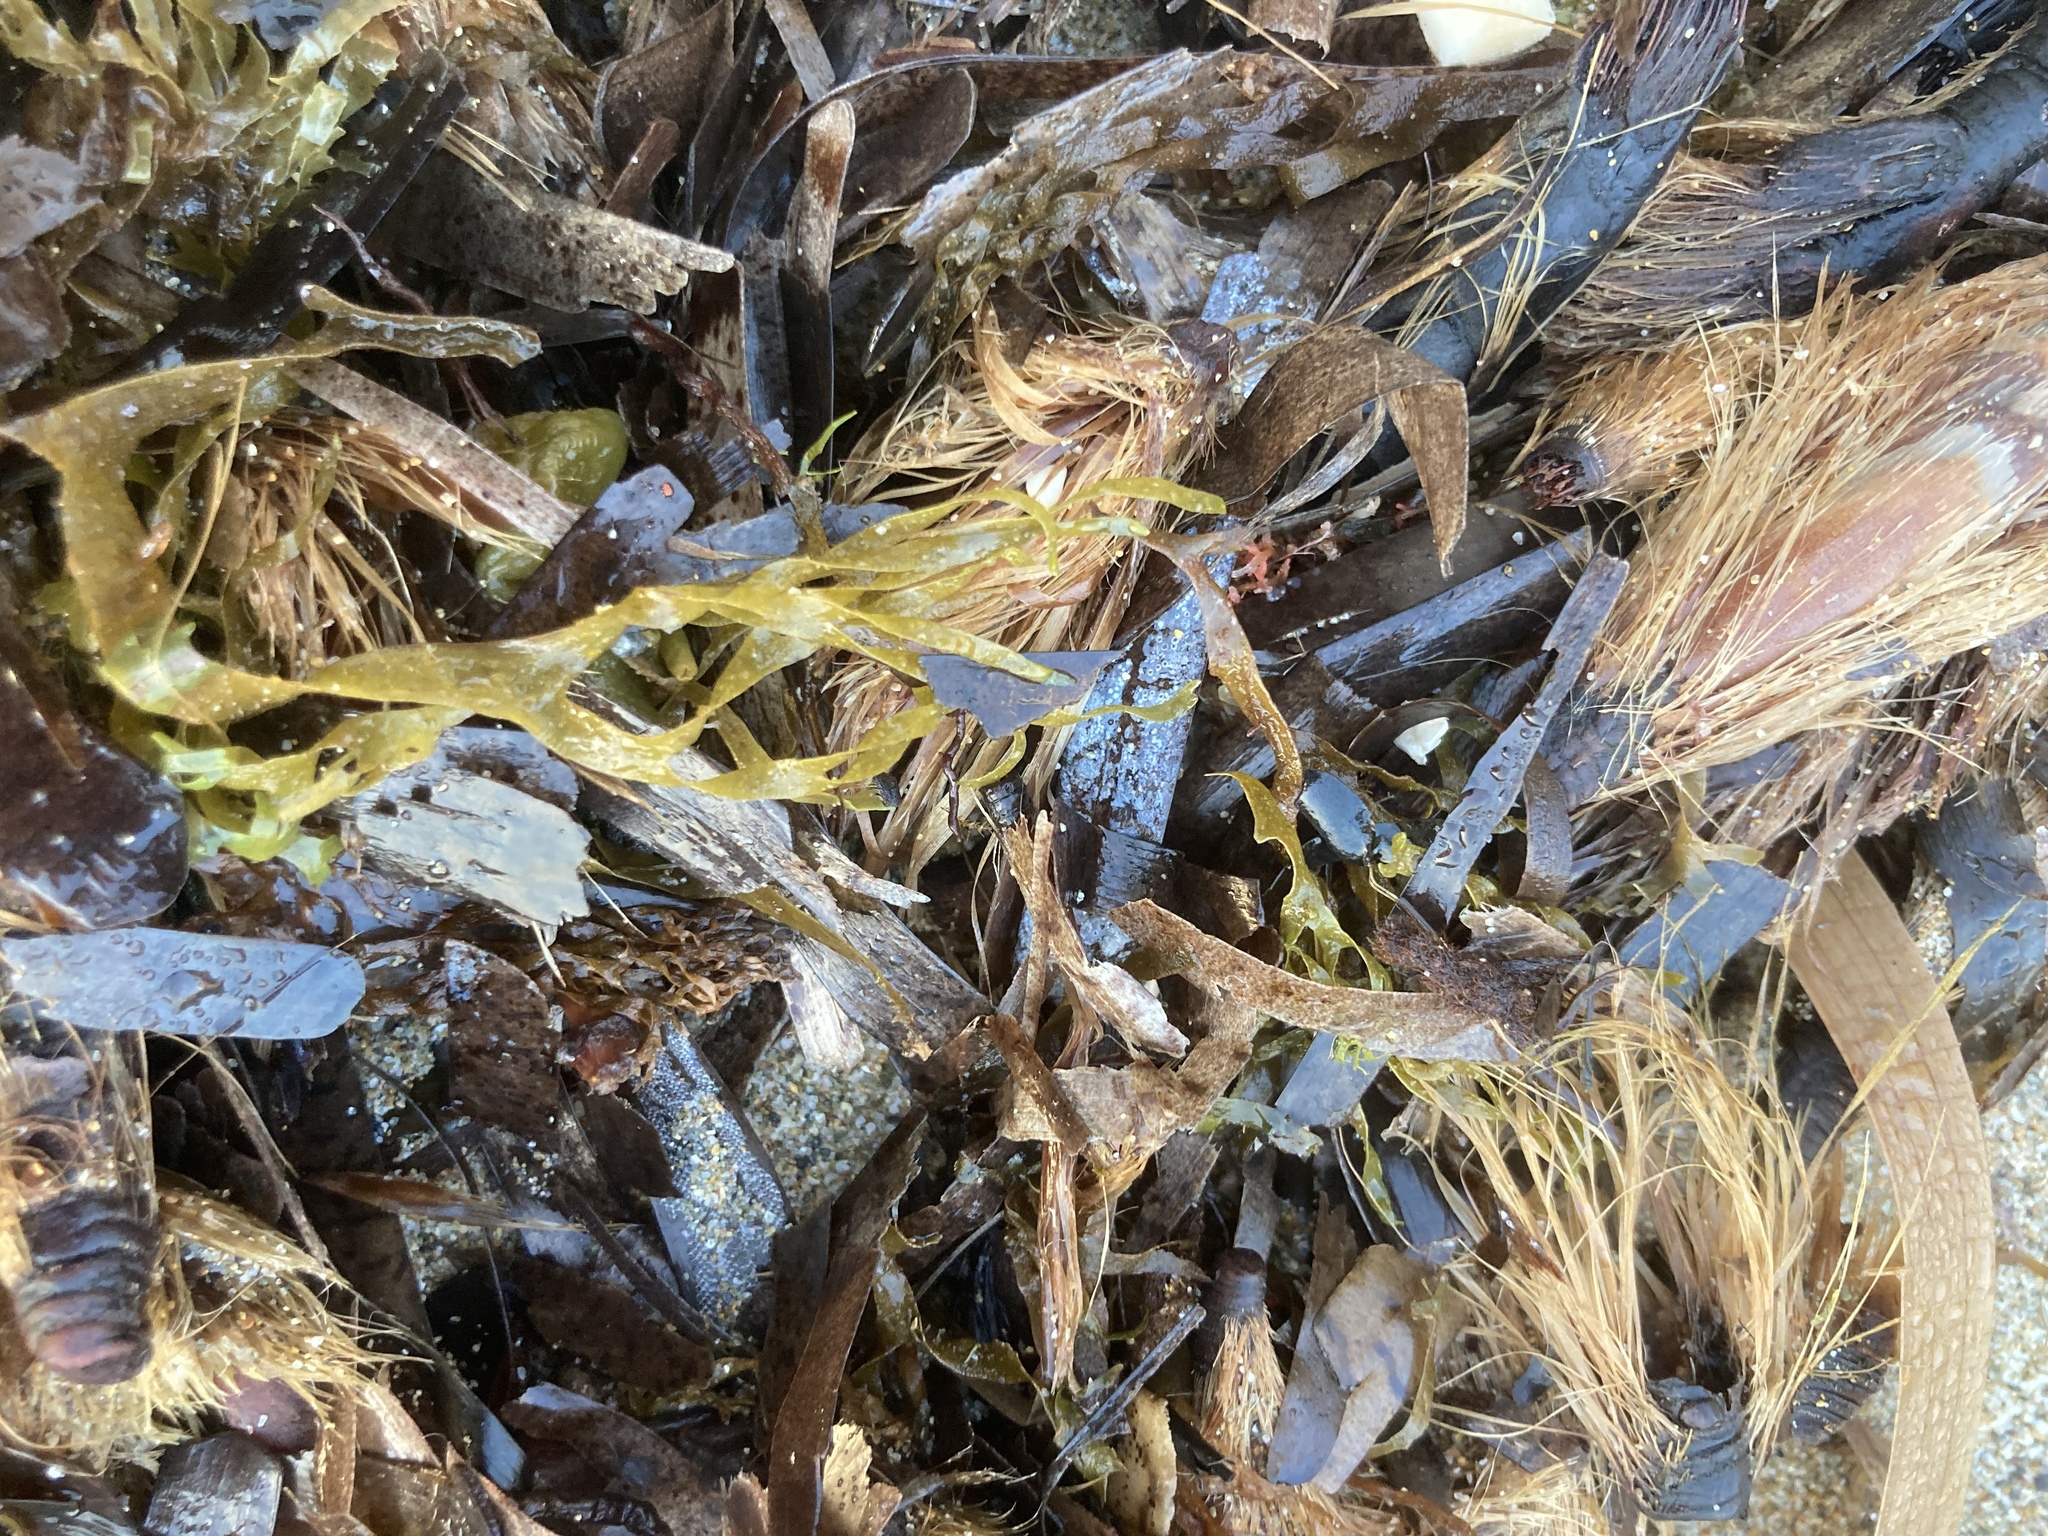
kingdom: Plantae
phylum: Tracheophyta
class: Liliopsida
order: Alismatales
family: Posidoniaceae
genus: Posidonia
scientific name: Posidonia oceanica
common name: Mediterranean tapeweed
